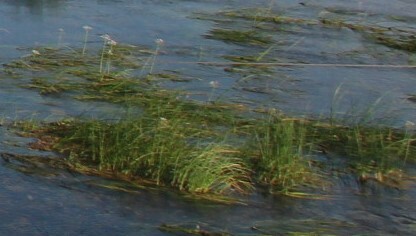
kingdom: Plantae
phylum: Tracheophyta
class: Liliopsida
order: Alismatales
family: Butomaceae
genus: Butomus
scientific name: Butomus umbellatus
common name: Flowering-rush
